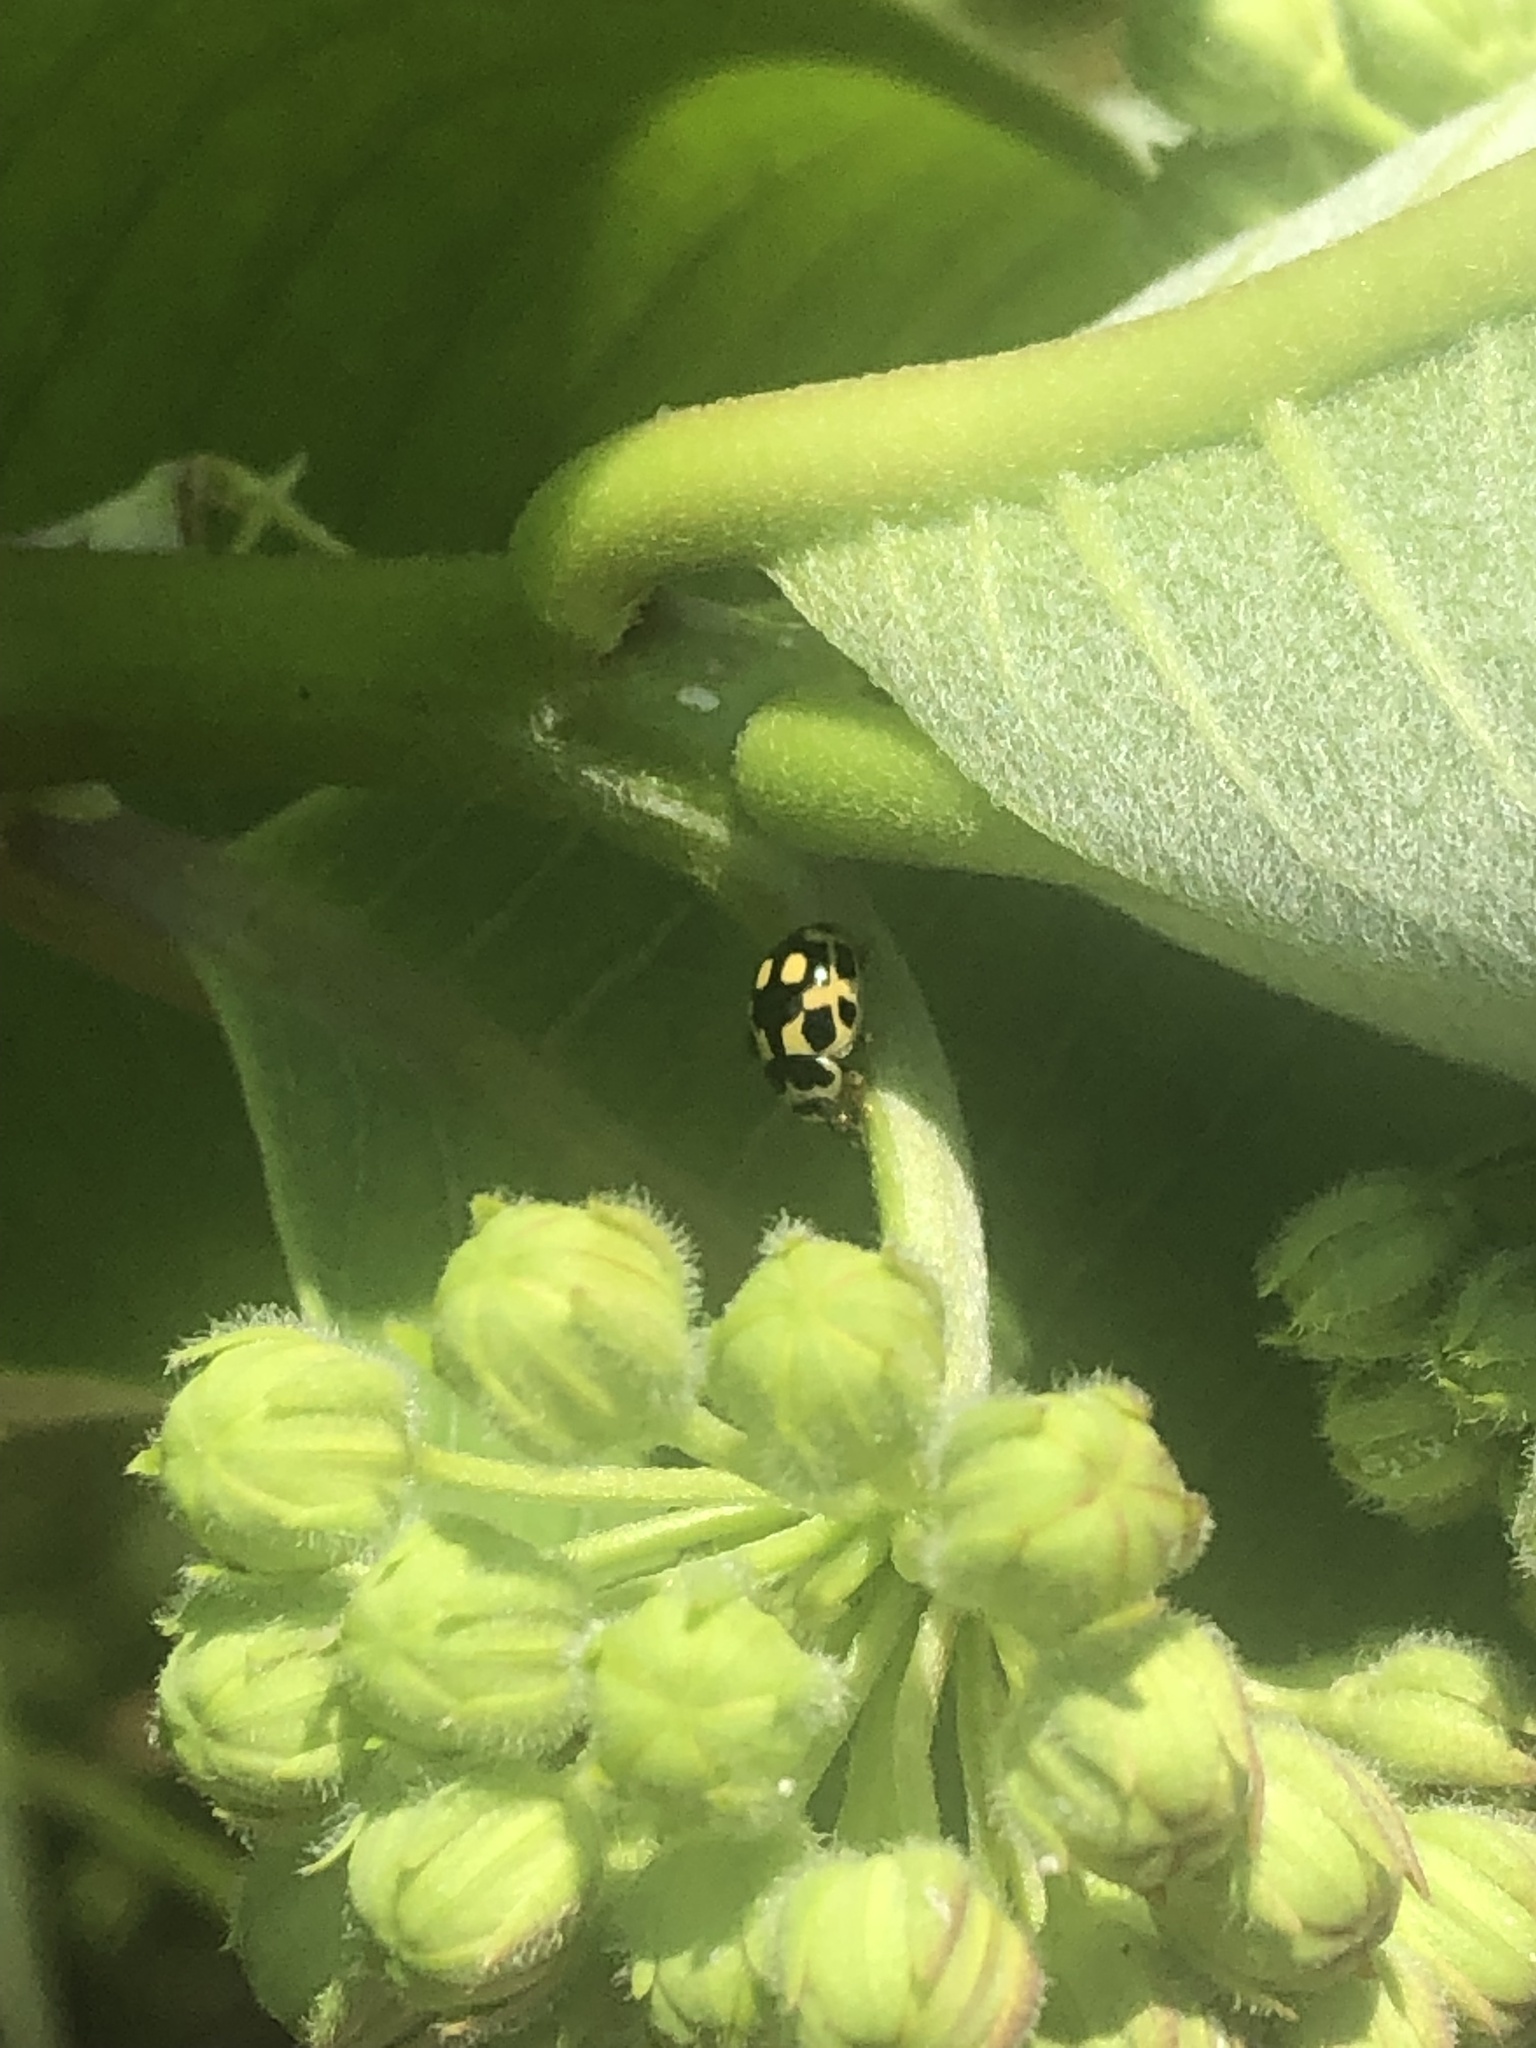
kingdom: Animalia
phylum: Arthropoda
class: Insecta
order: Coleoptera
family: Coccinellidae
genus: Propylaea
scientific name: Propylaea quatuordecimpunctata
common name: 14-spotted ladybird beetle
